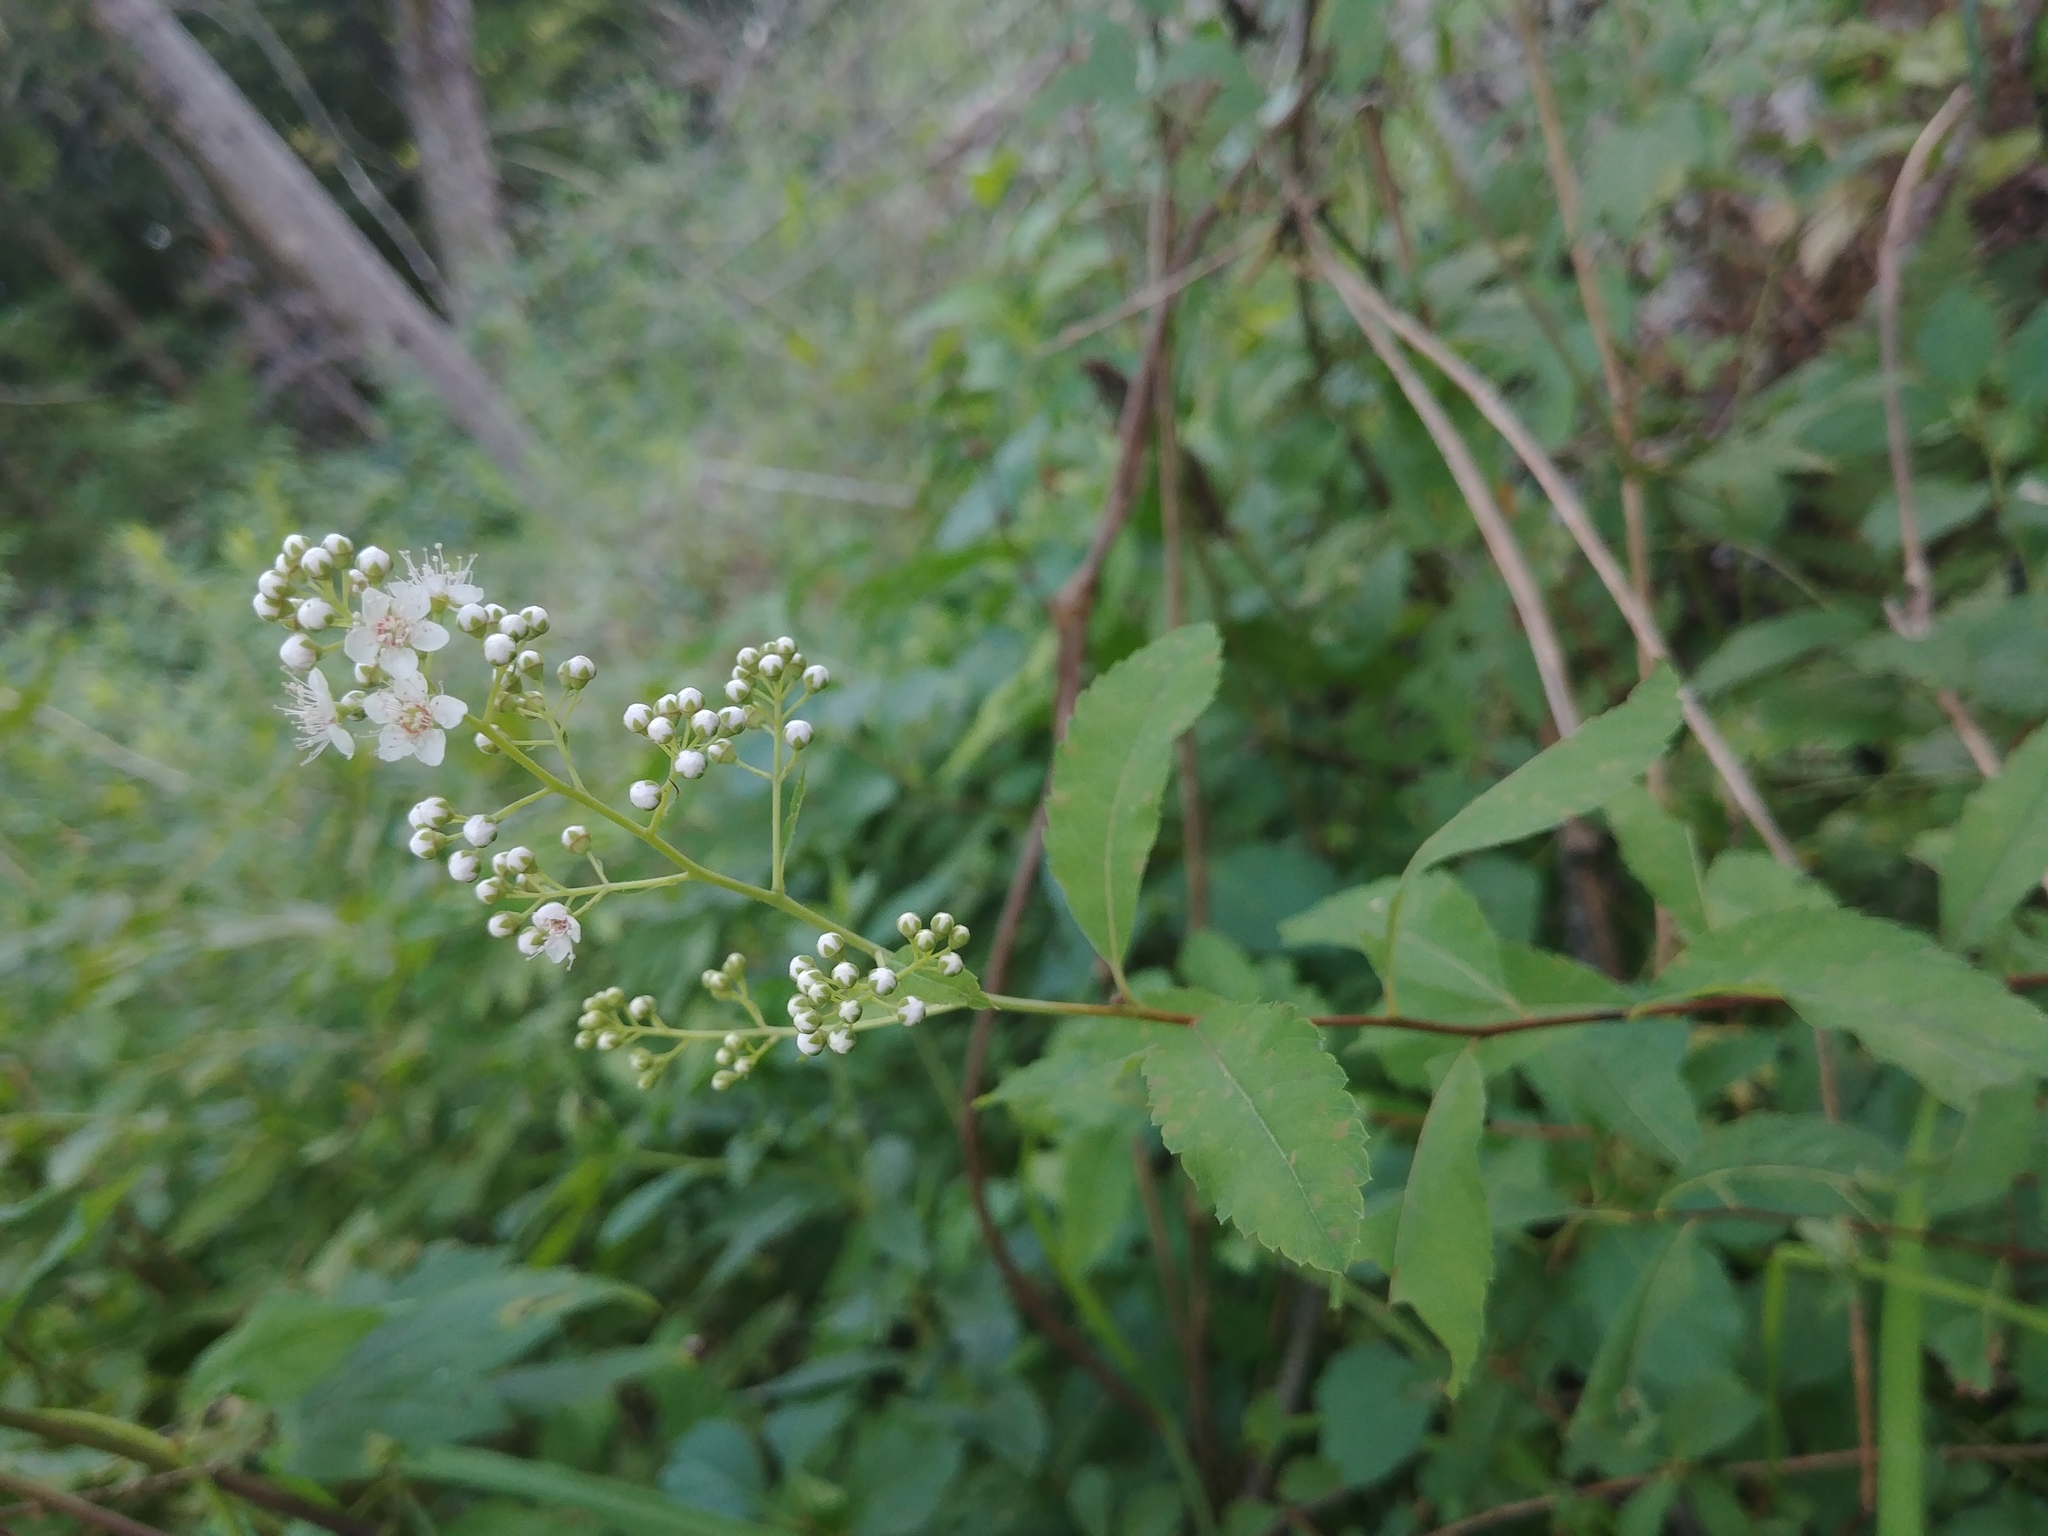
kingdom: Plantae
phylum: Tracheophyta
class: Magnoliopsida
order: Rosales
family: Rosaceae
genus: Spiraea
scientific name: Spiraea alba
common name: Pale bridewort
